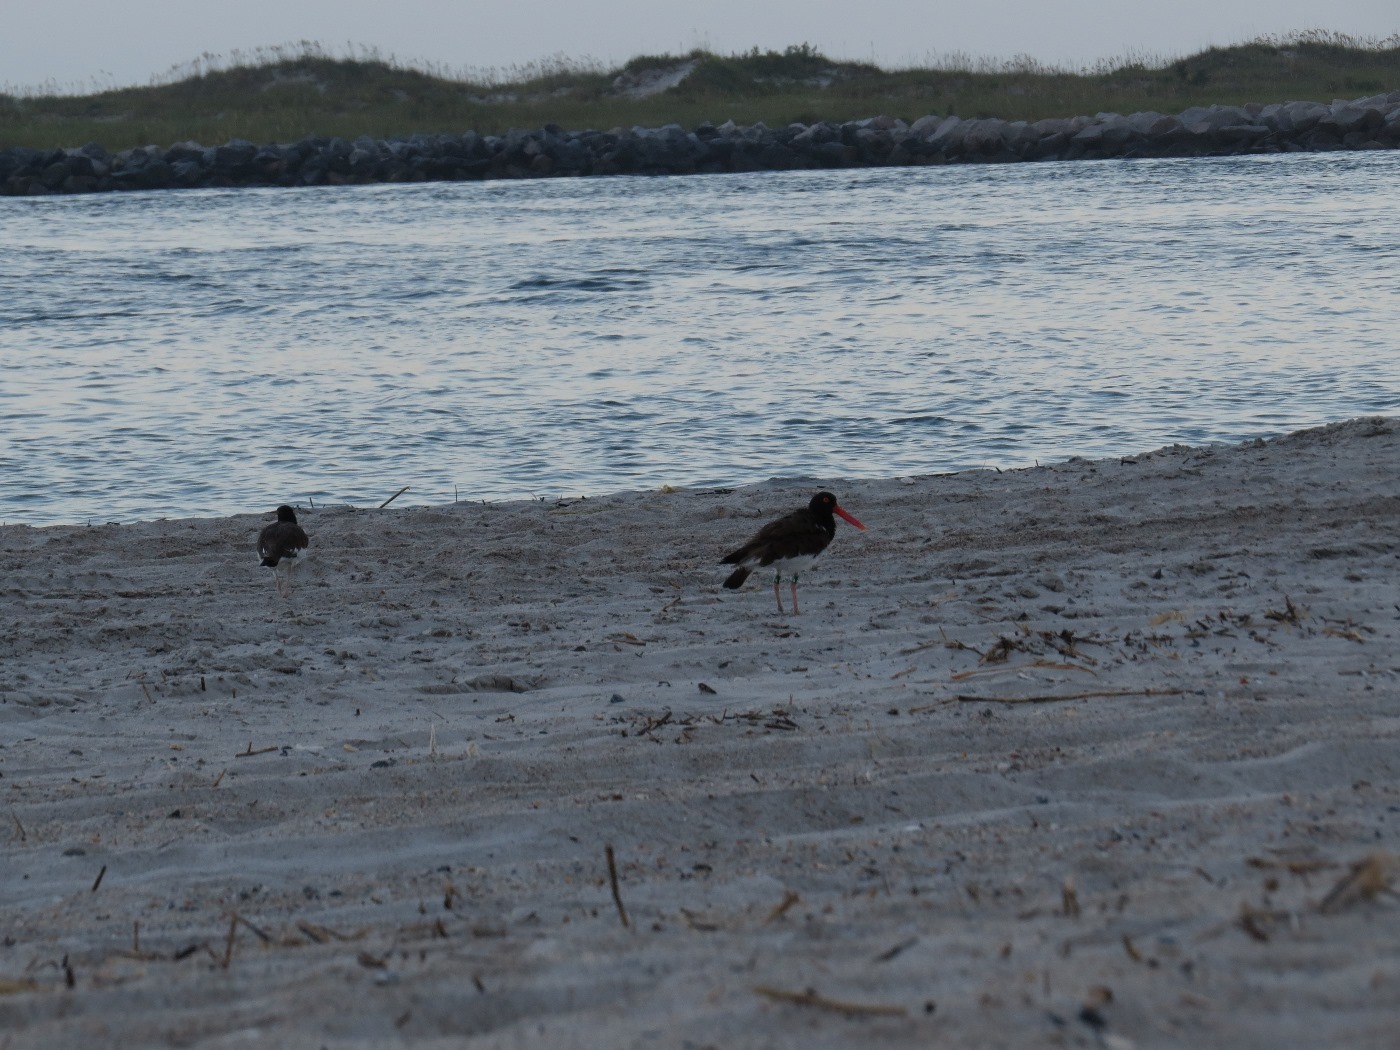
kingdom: Animalia
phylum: Chordata
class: Aves
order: Charadriiformes
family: Haematopodidae
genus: Haematopus
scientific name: Haematopus palliatus
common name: American oystercatcher
